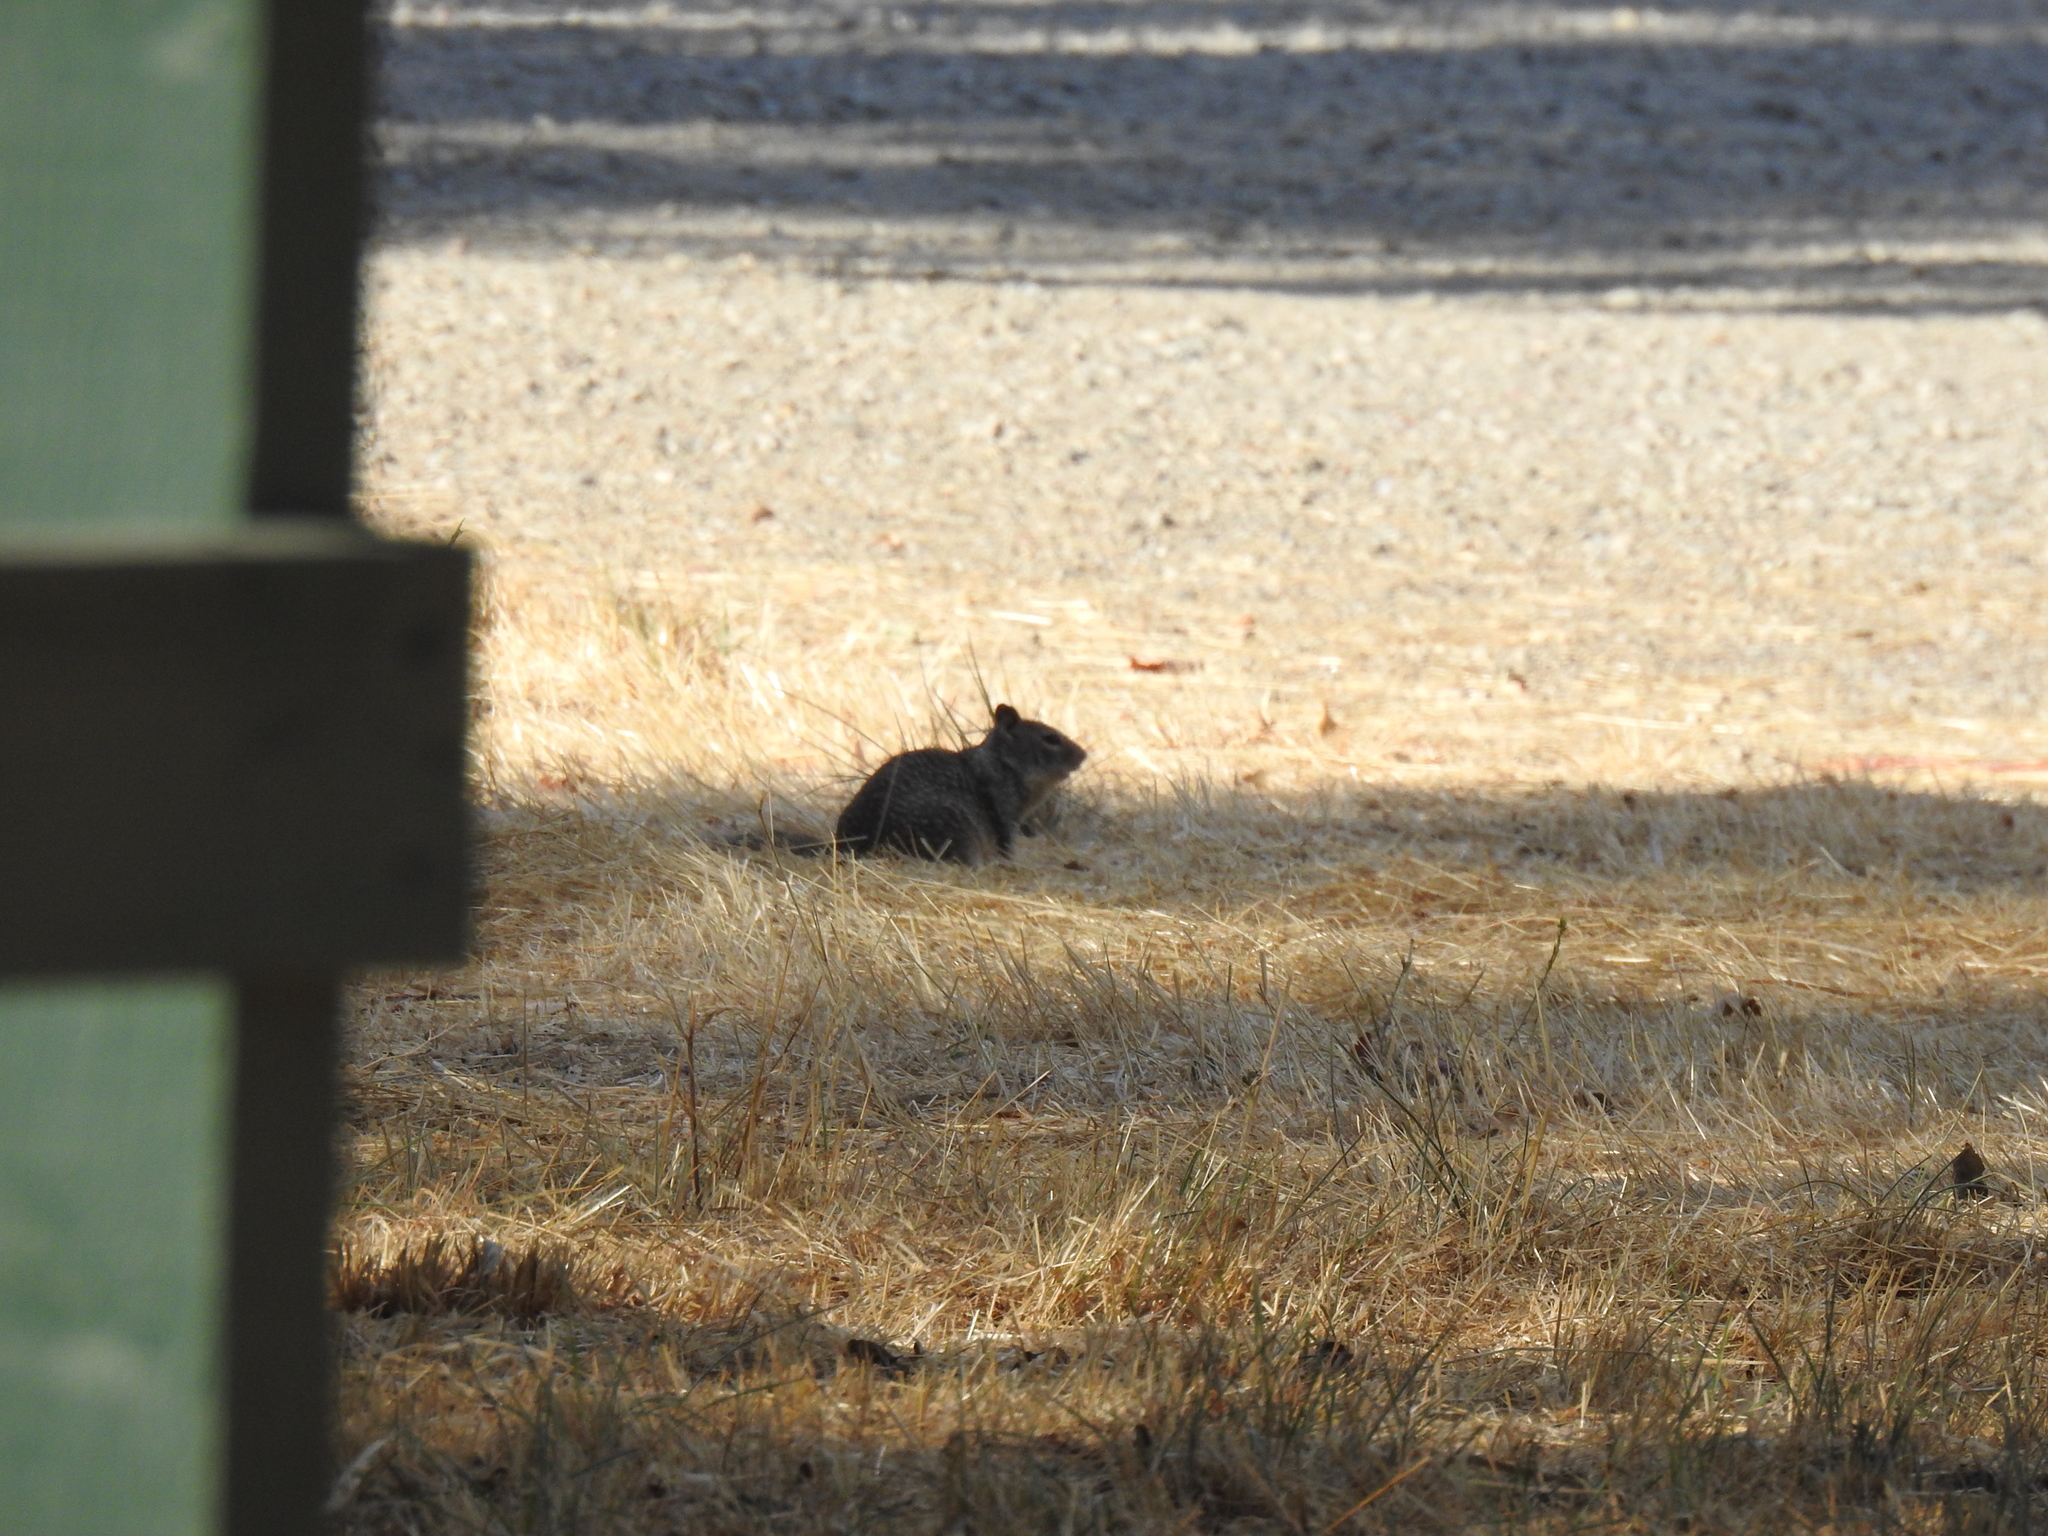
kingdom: Animalia
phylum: Chordata
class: Mammalia
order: Rodentia
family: Sciuridae
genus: Otospermophilus
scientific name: Otospermophilus beecheyi
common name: California ground squirrel
